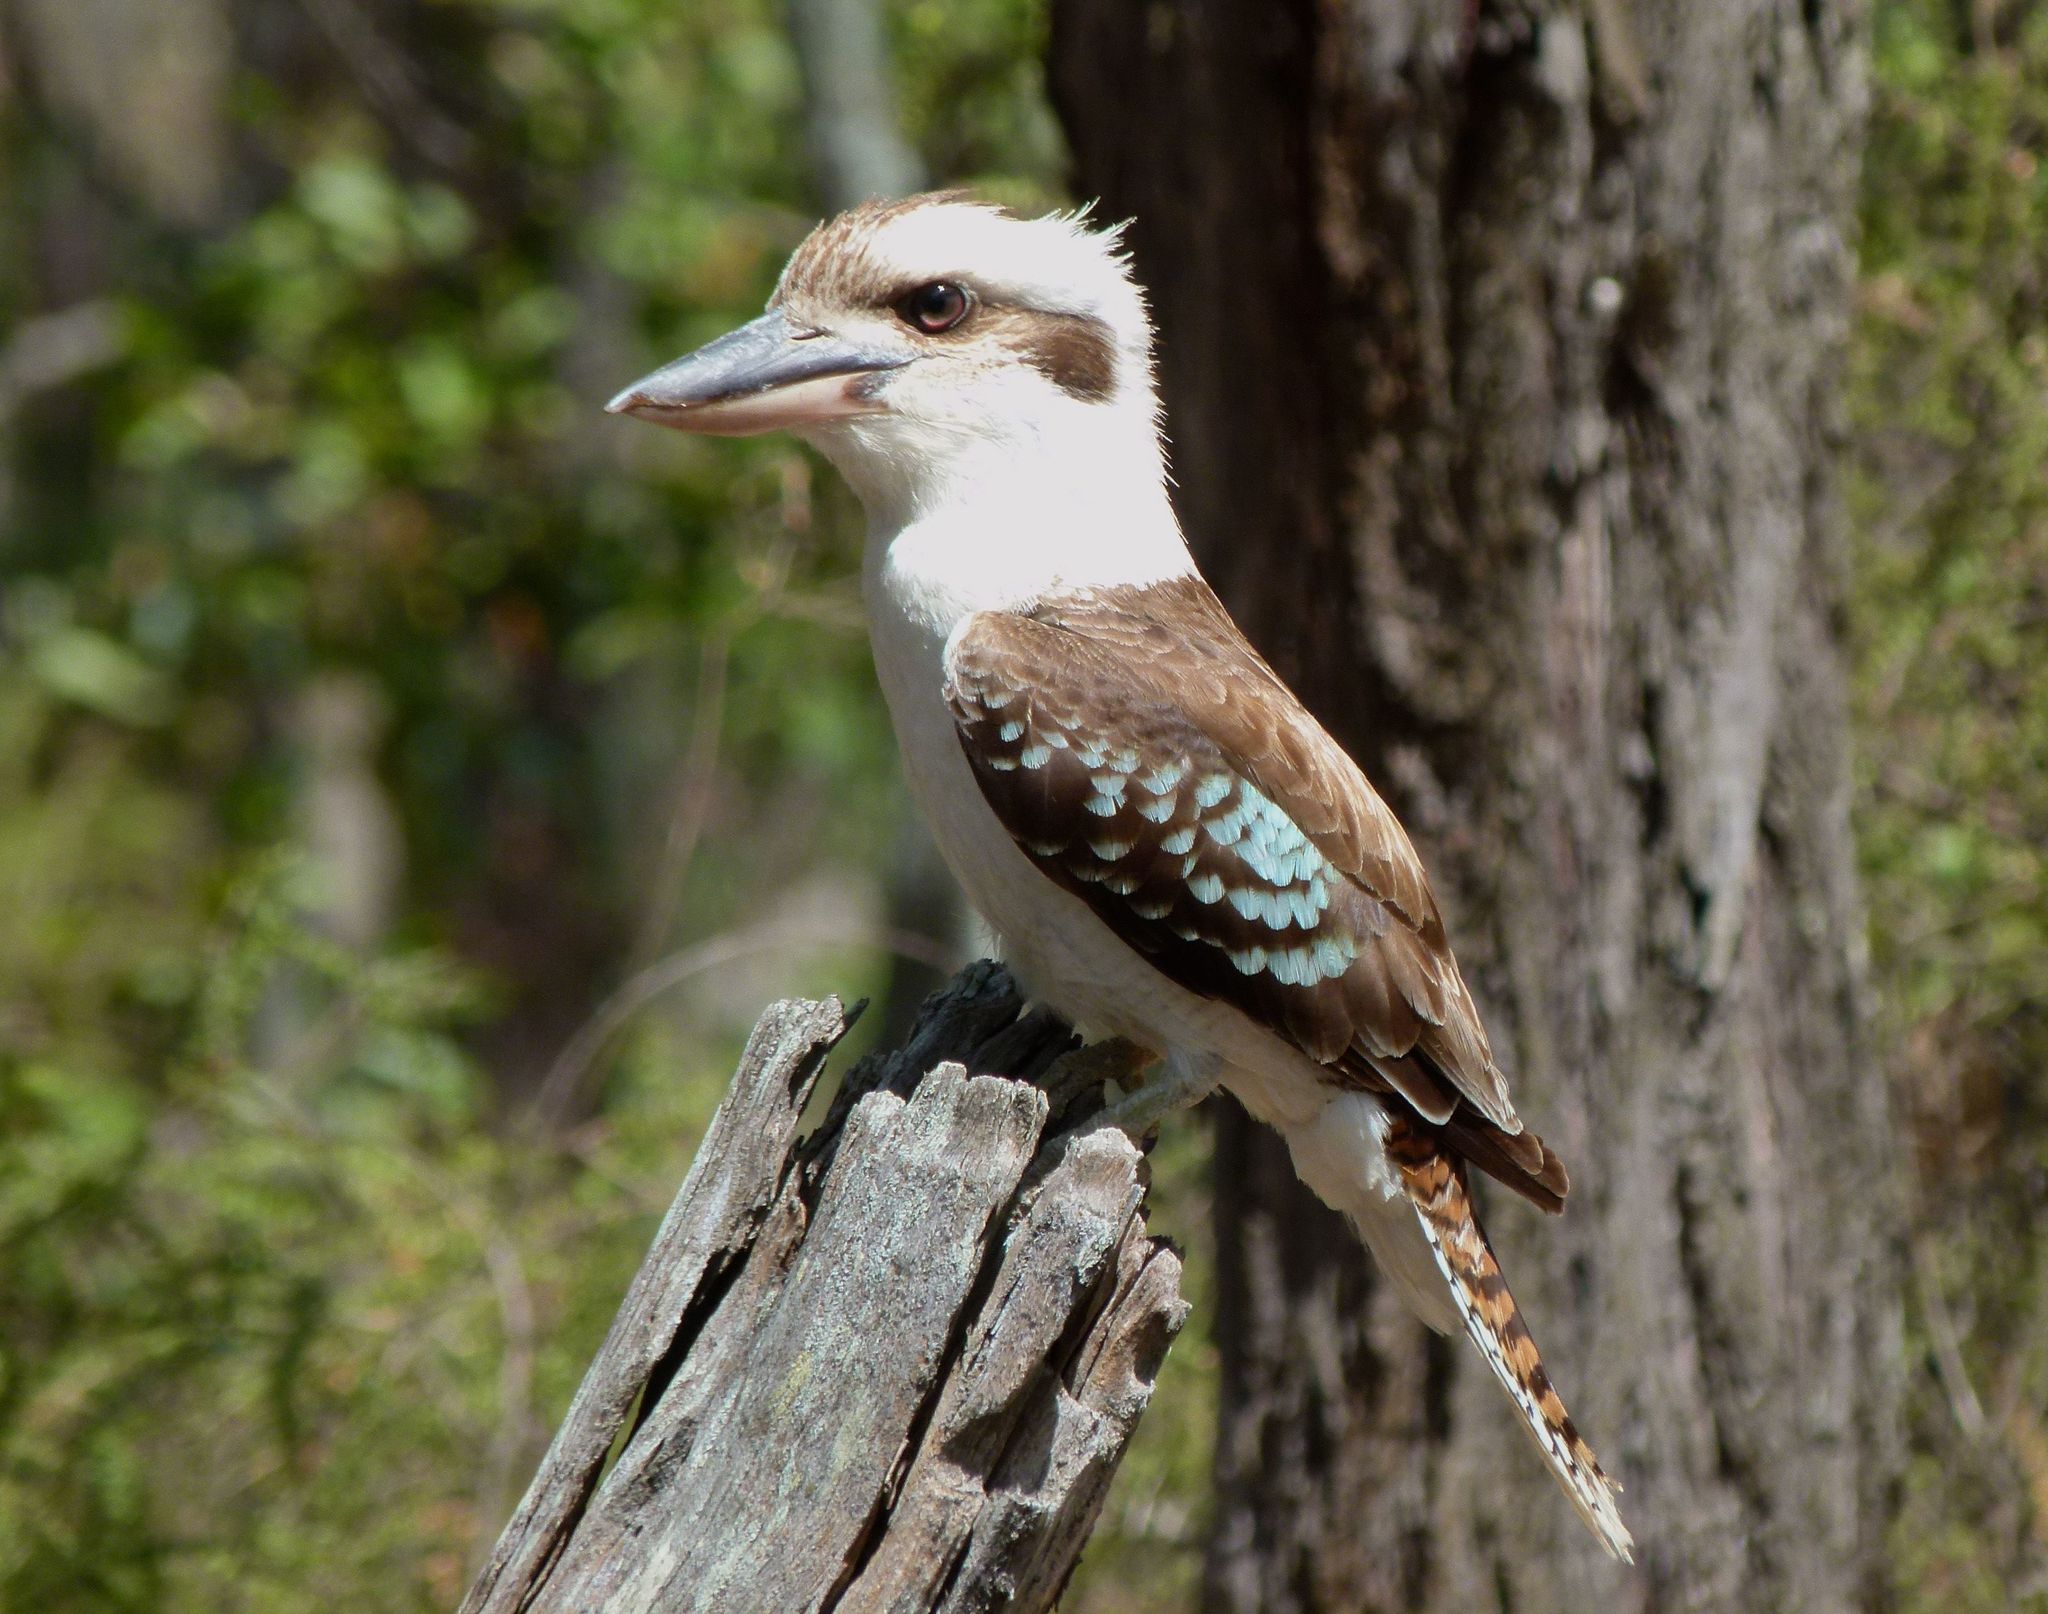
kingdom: Animalia
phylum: Chordata
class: Aves
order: Coraciiformes
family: Alcedinidae
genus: Dacelo
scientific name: Dacelo novaeguineae
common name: Laughing kookaburra
